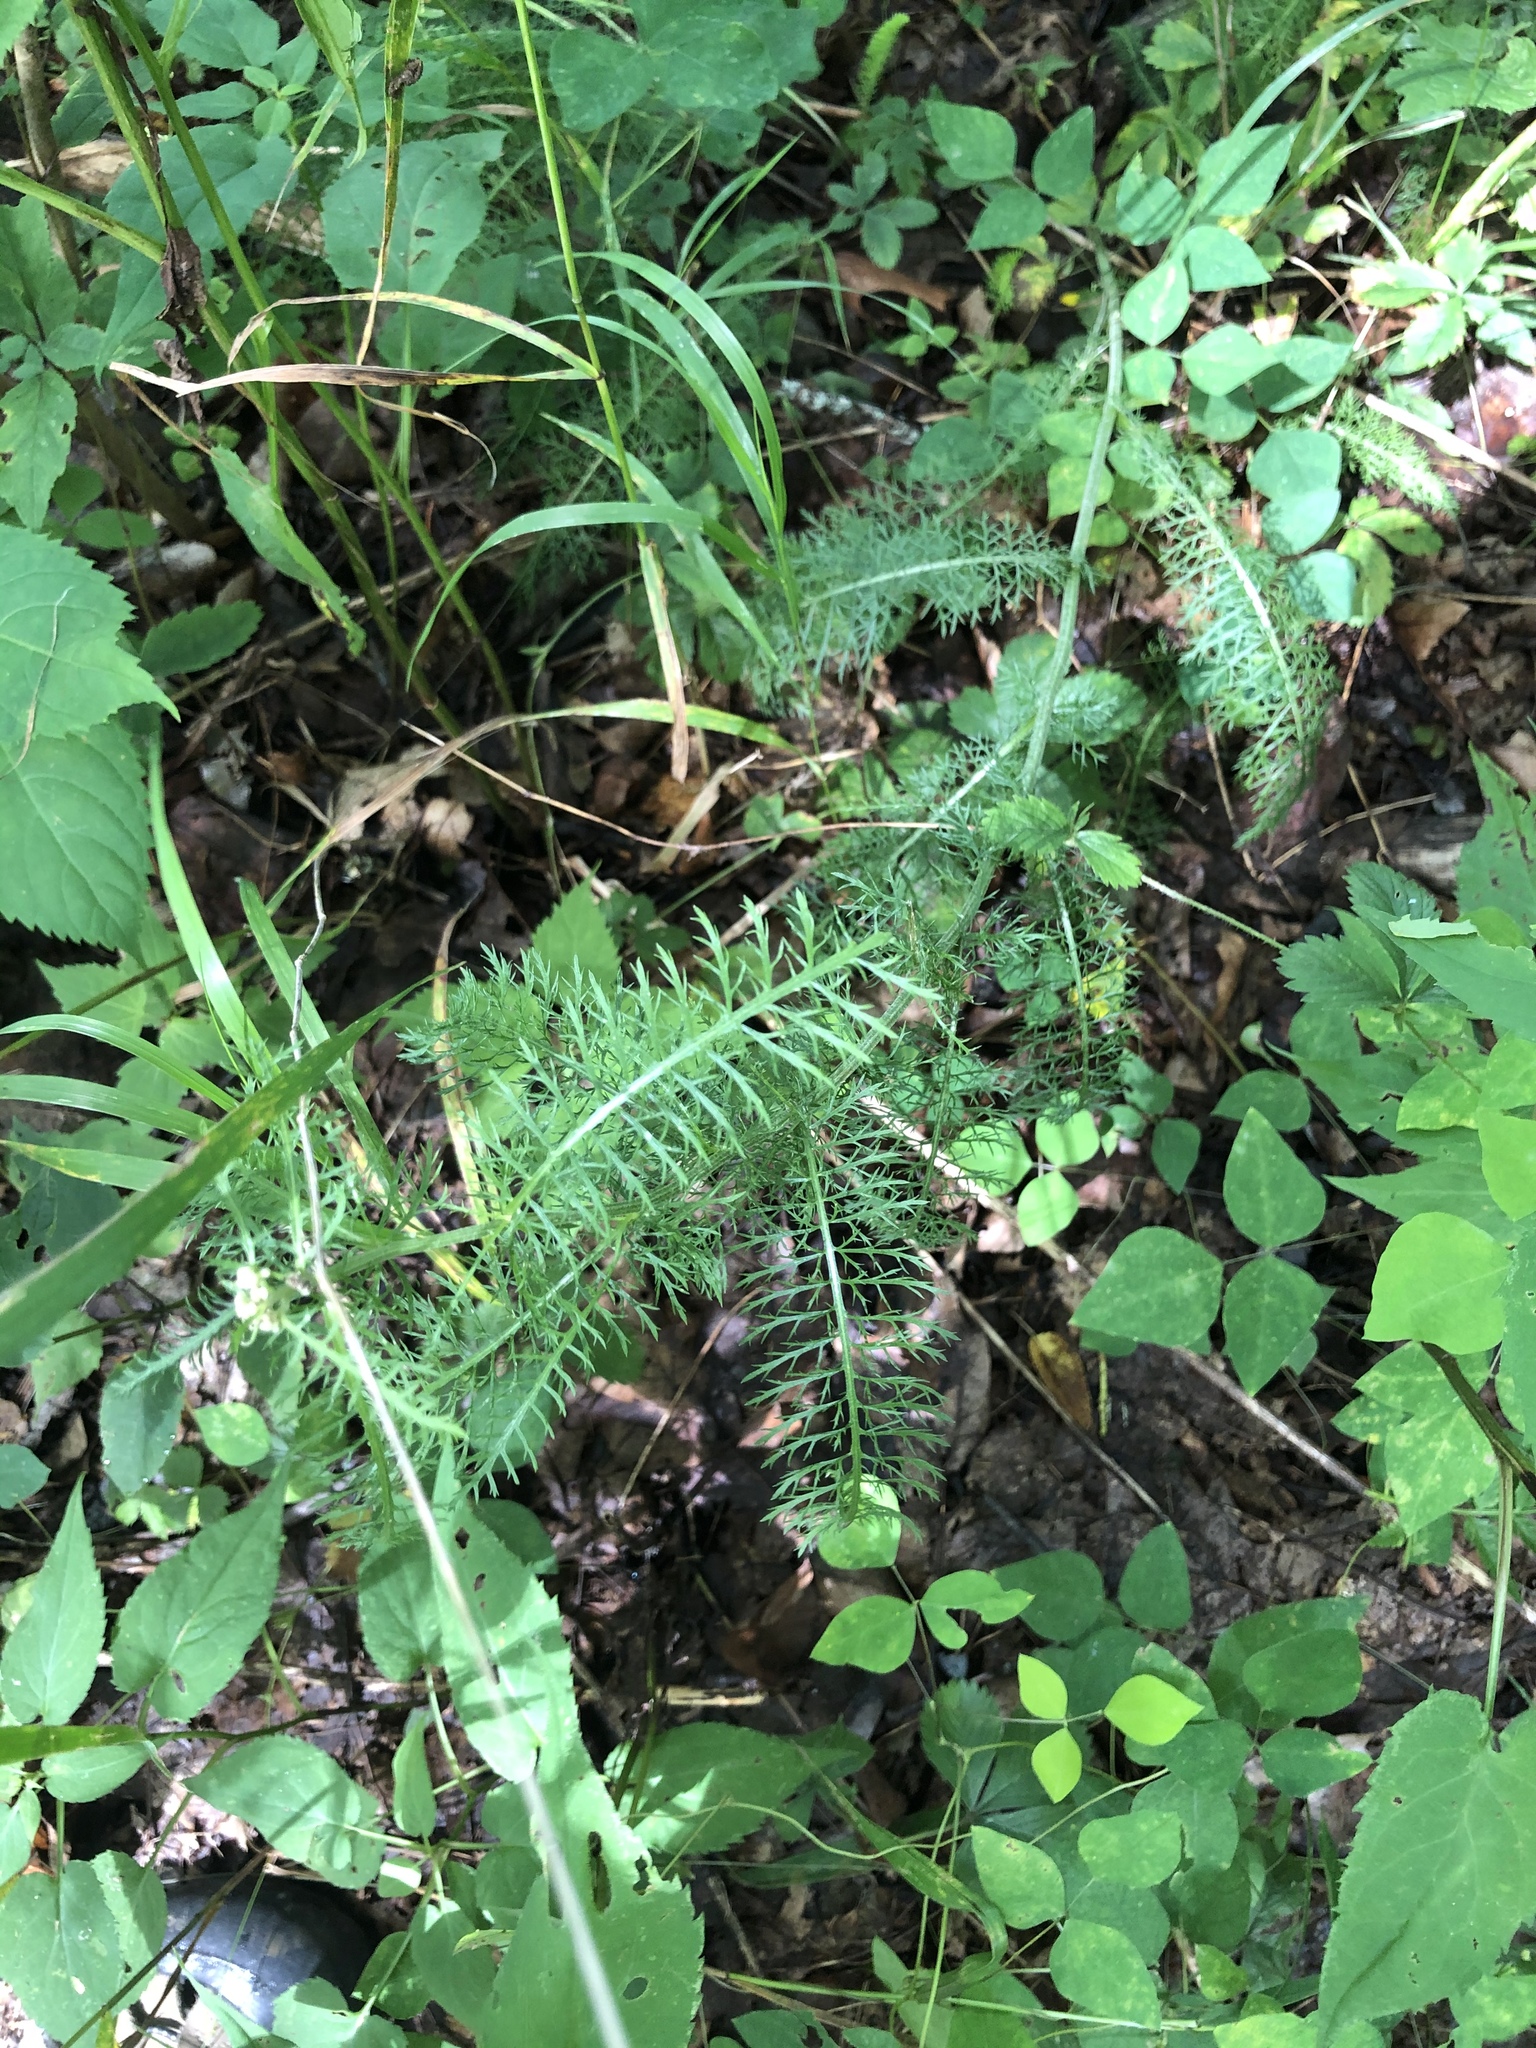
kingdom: Plantae
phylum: Tracheophyta
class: Magnoliopsida
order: Asterales
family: Asteraceae
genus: Achillea
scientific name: Achillea millefolium
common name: Yarrow
